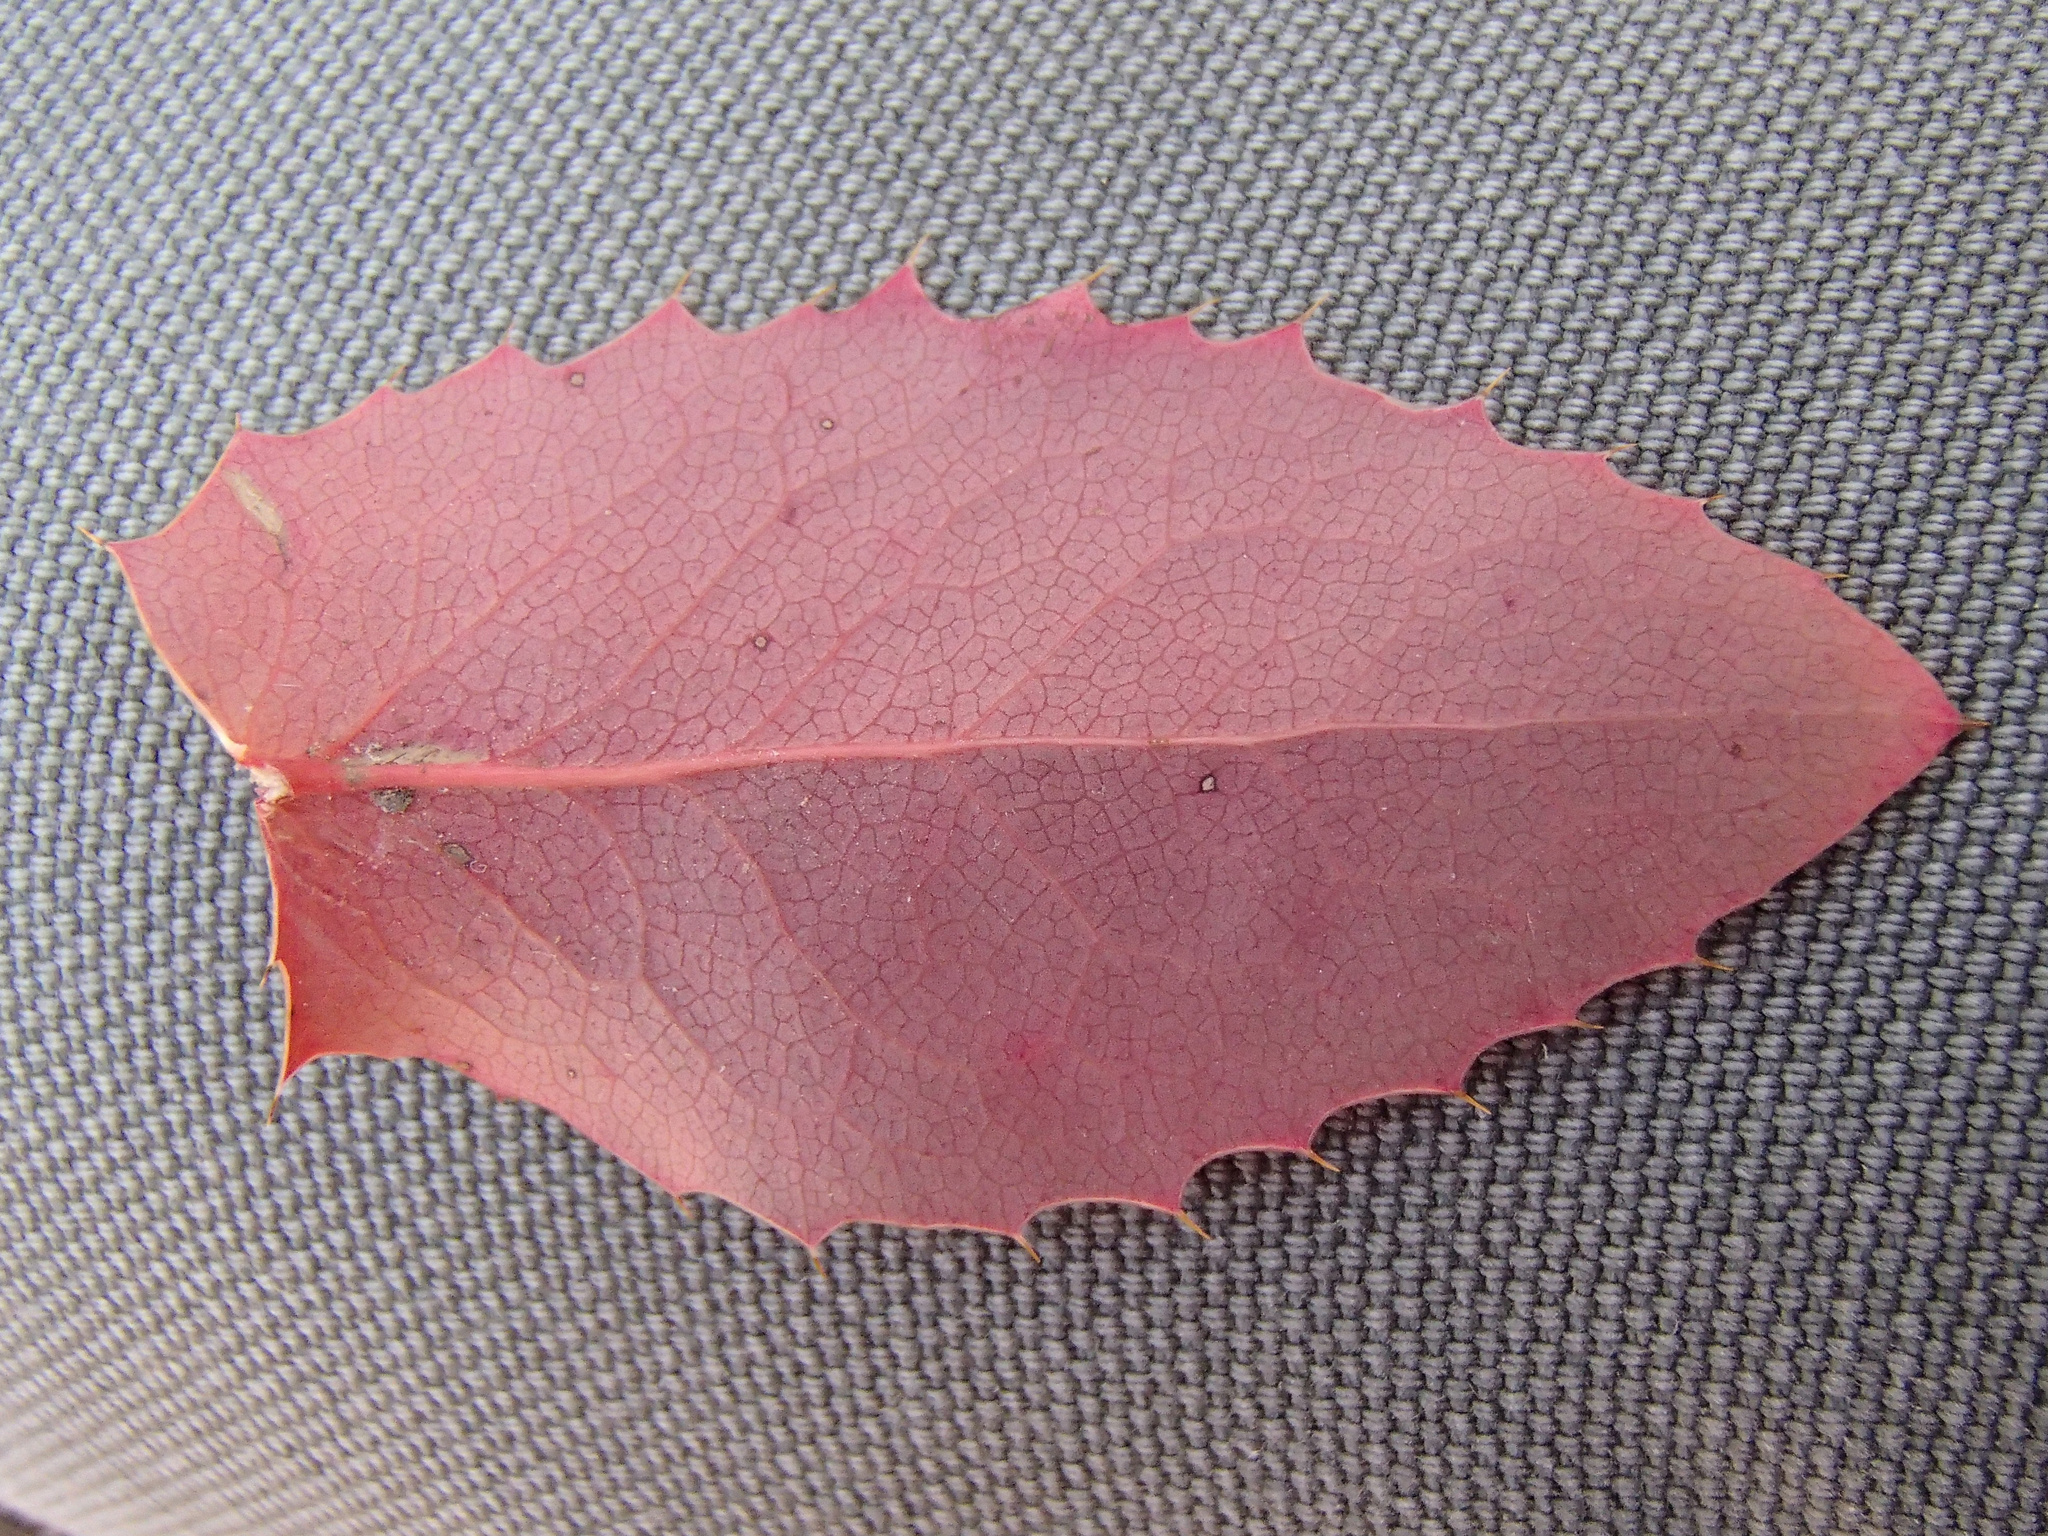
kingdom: Plantae
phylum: Tracheophyta
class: Magnoliopsida
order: Ranunculales
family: Berberidaceae
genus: Mahonia
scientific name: Mahonia repens
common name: Creeping oregon-grape
